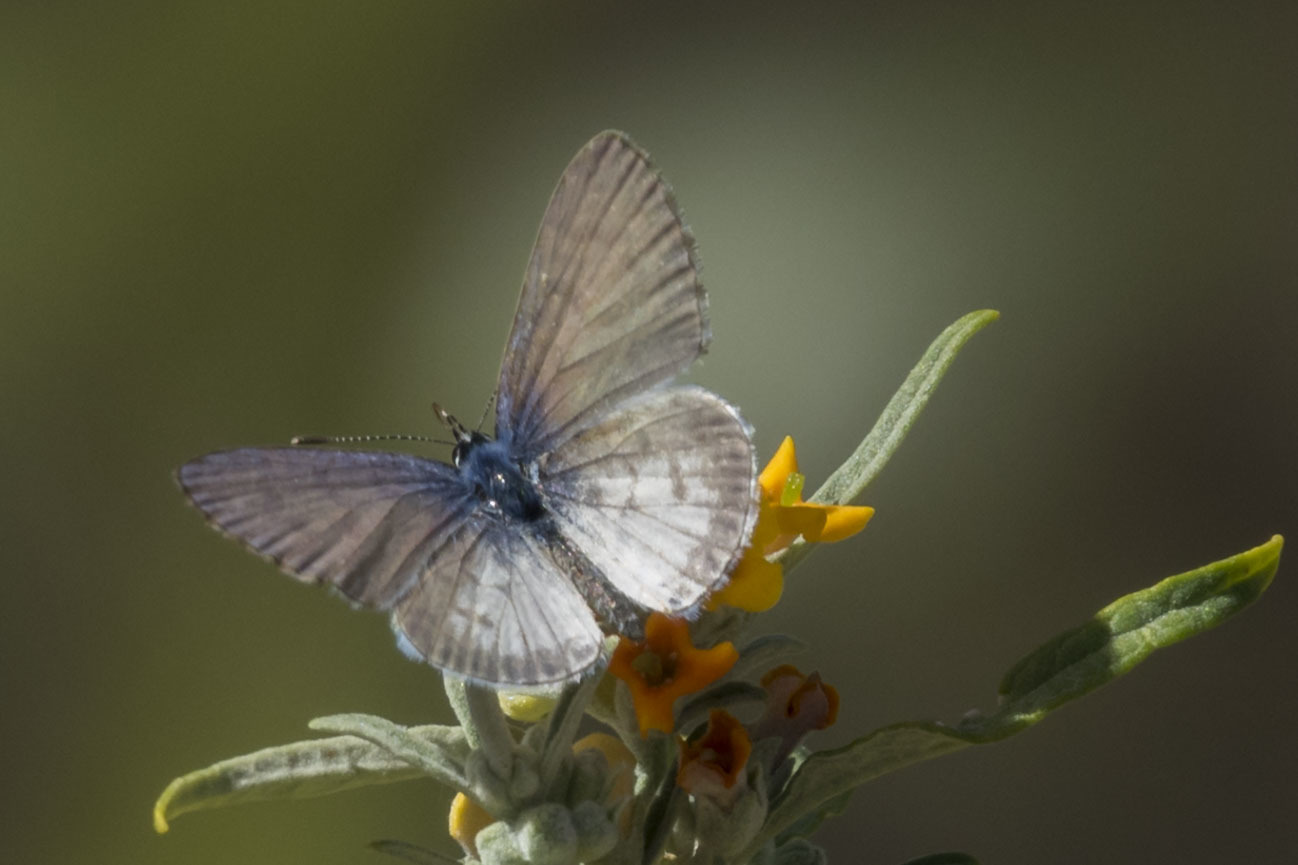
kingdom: Animalia
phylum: Arthropoda
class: Insecta
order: Lepidoptera
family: Lycaenidae
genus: Leptotes
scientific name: Leptotes cassius
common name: Cassius blue
